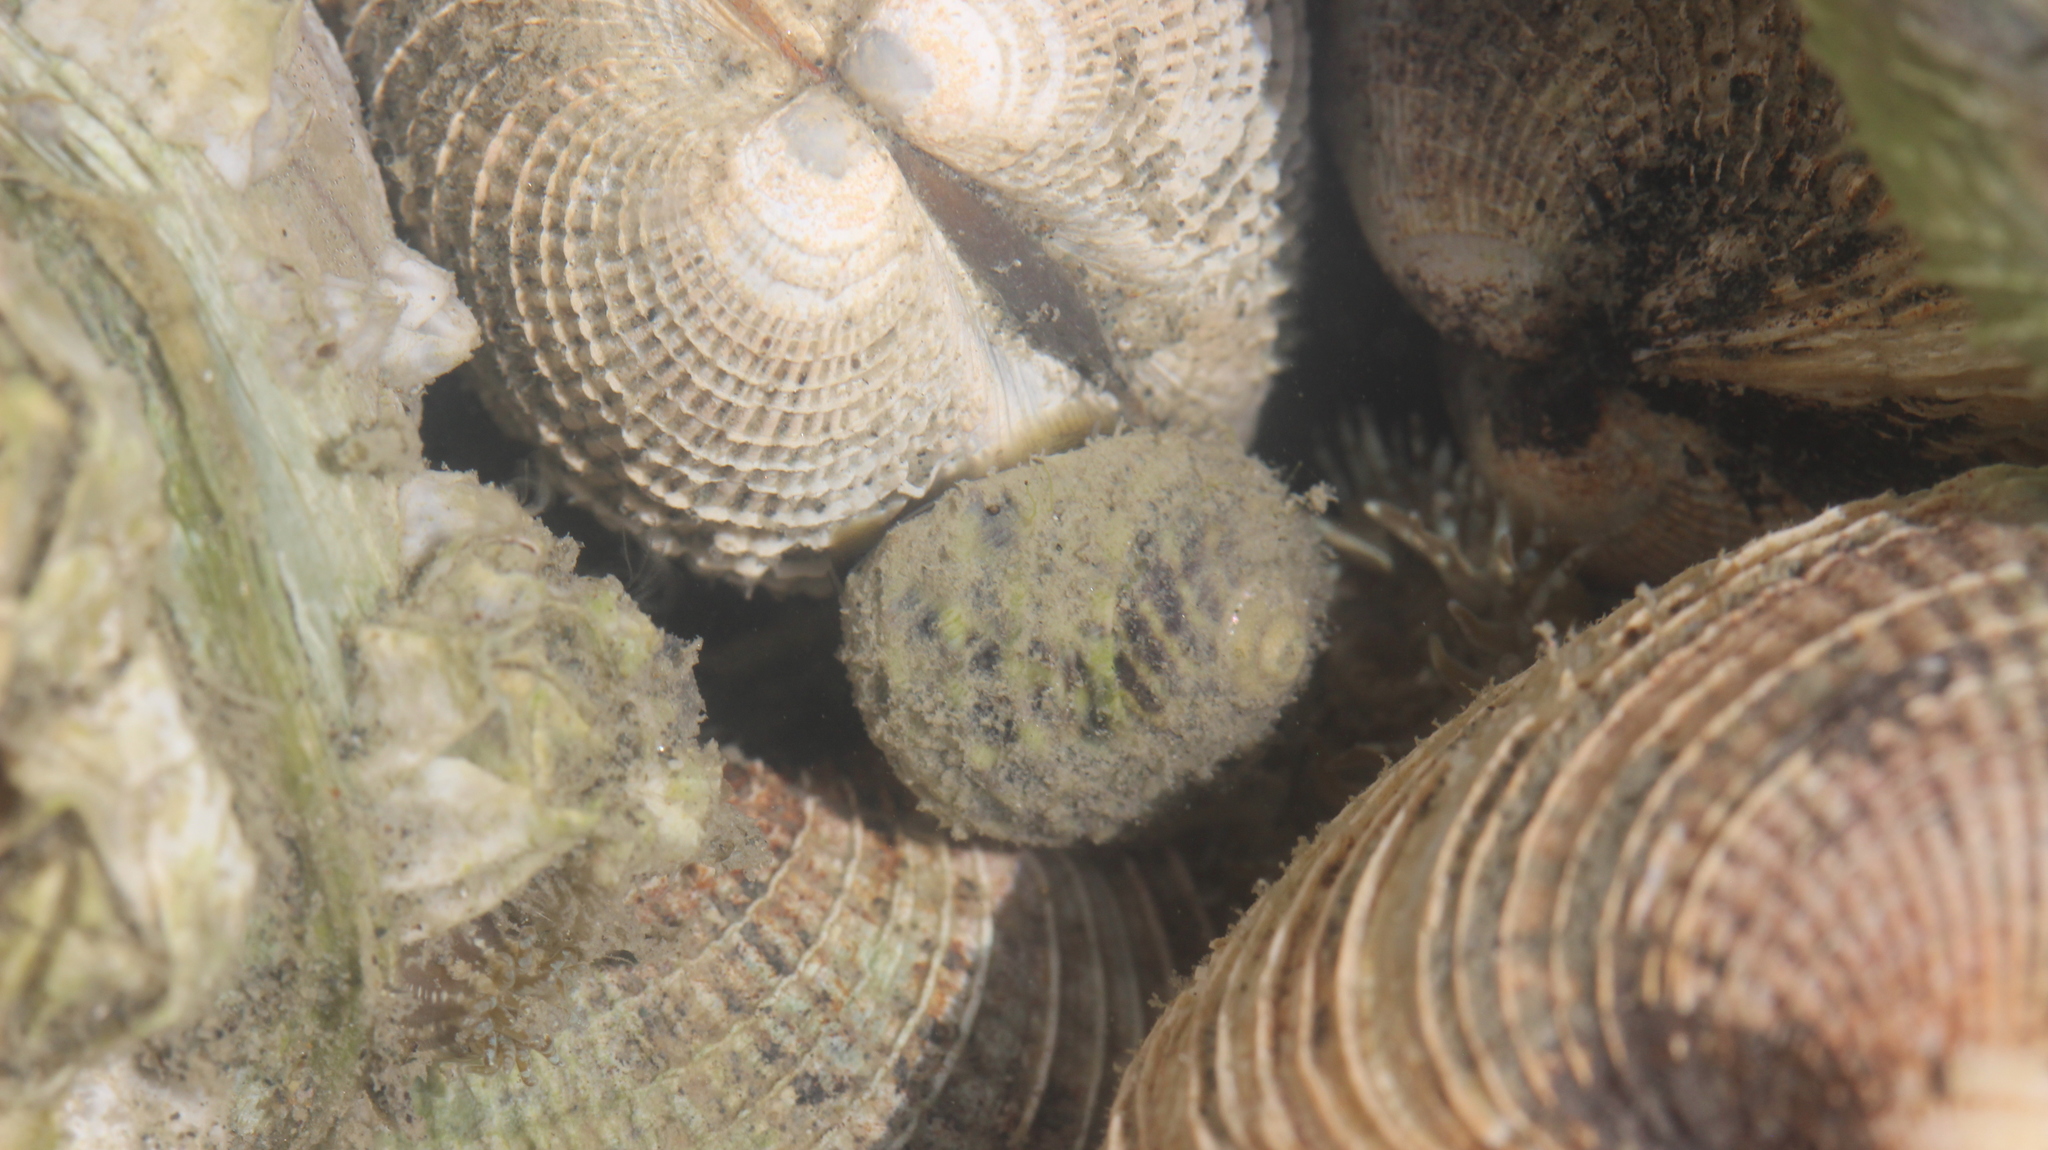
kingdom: Animalia
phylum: Mollusca
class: Gastropoda
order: Trochida
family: Trochidae
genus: Diloma
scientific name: Diloma subrostratum
